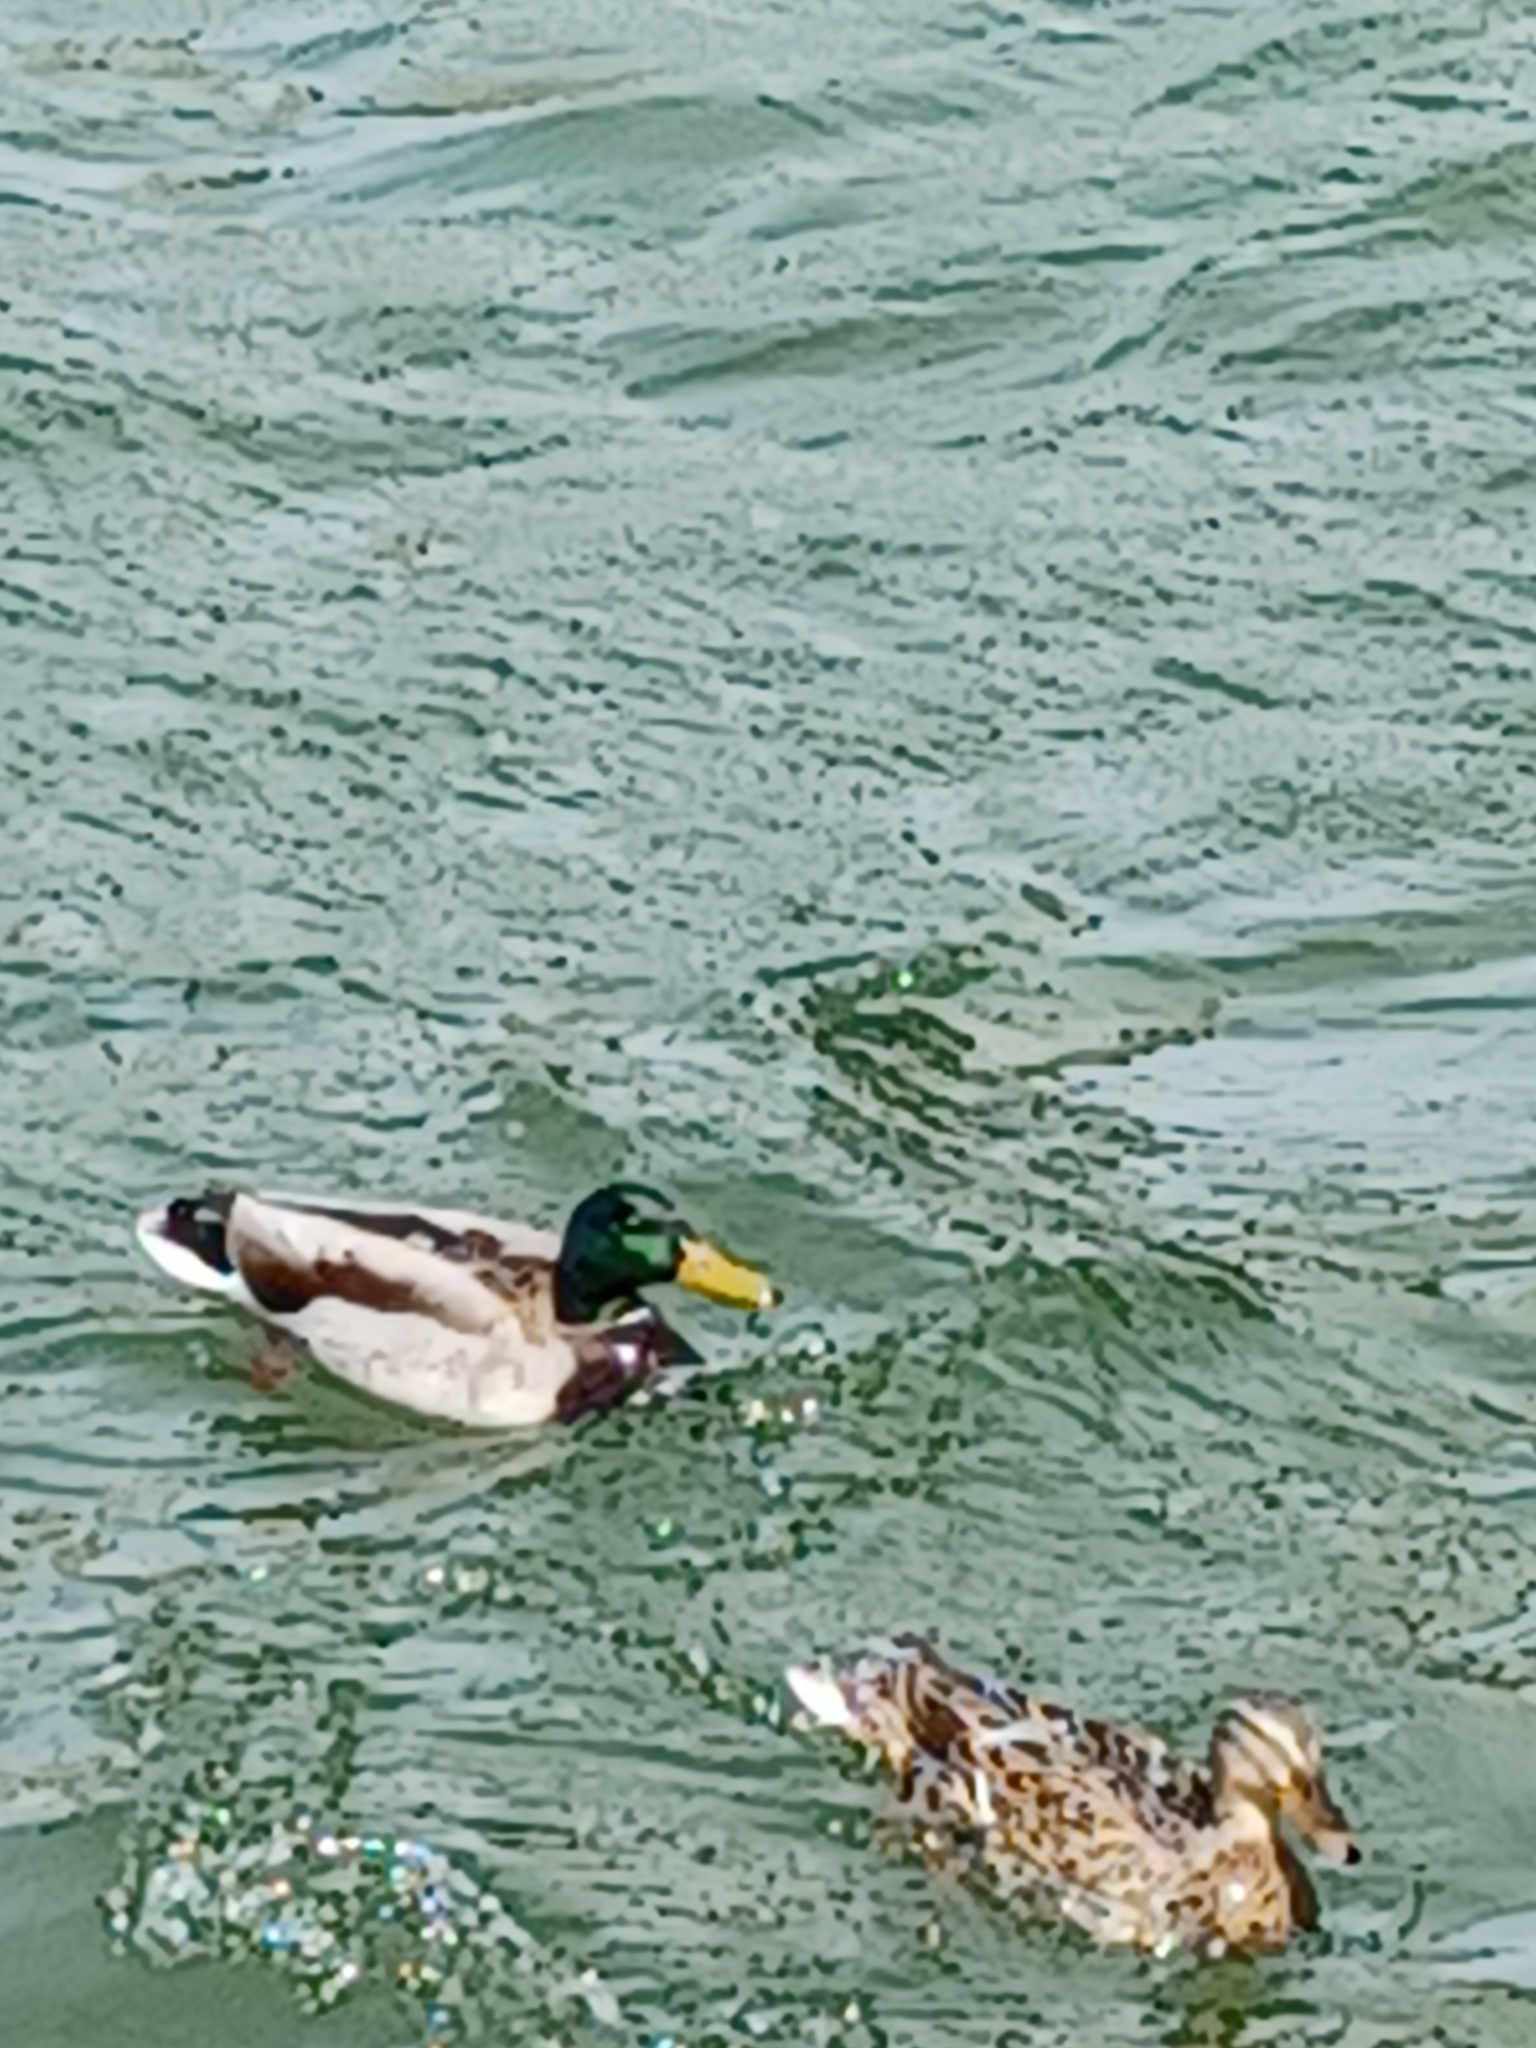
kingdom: Animalia
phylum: Chordata
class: Aves
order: Anseriformes
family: Anatidae
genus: Anas
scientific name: Anas platyrhynchos
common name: Mallard
